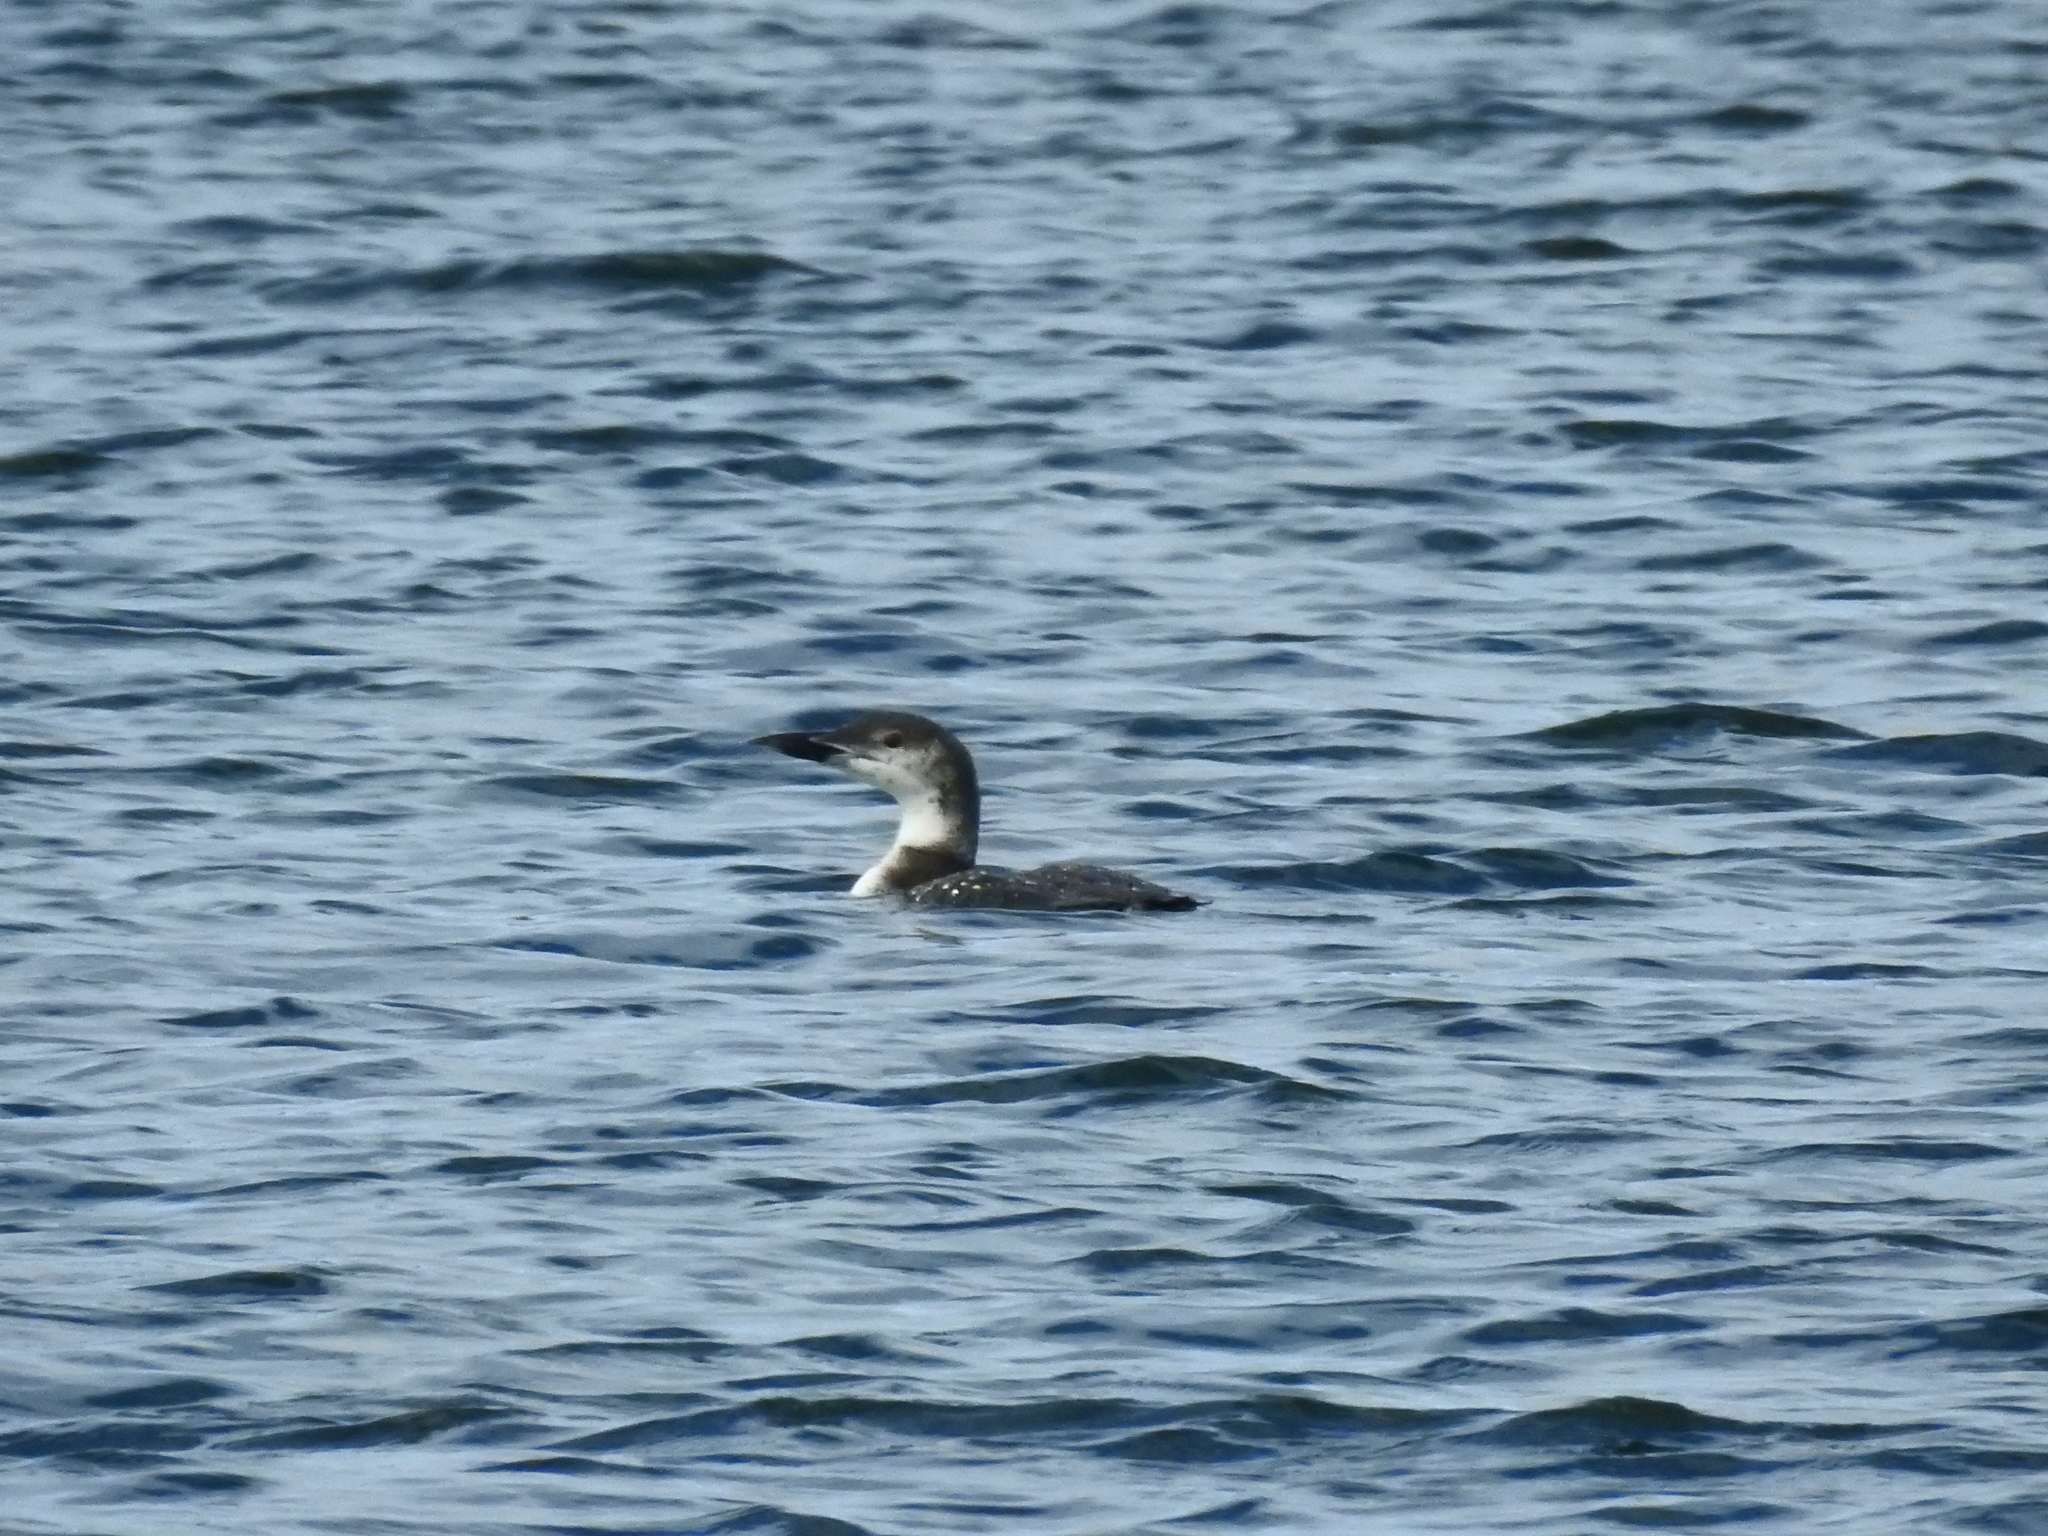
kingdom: Animalia
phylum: Chordata
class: Aves
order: Gaviiformes
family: Gaviidae
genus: Gavia
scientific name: Gavia immer
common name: Common loon
